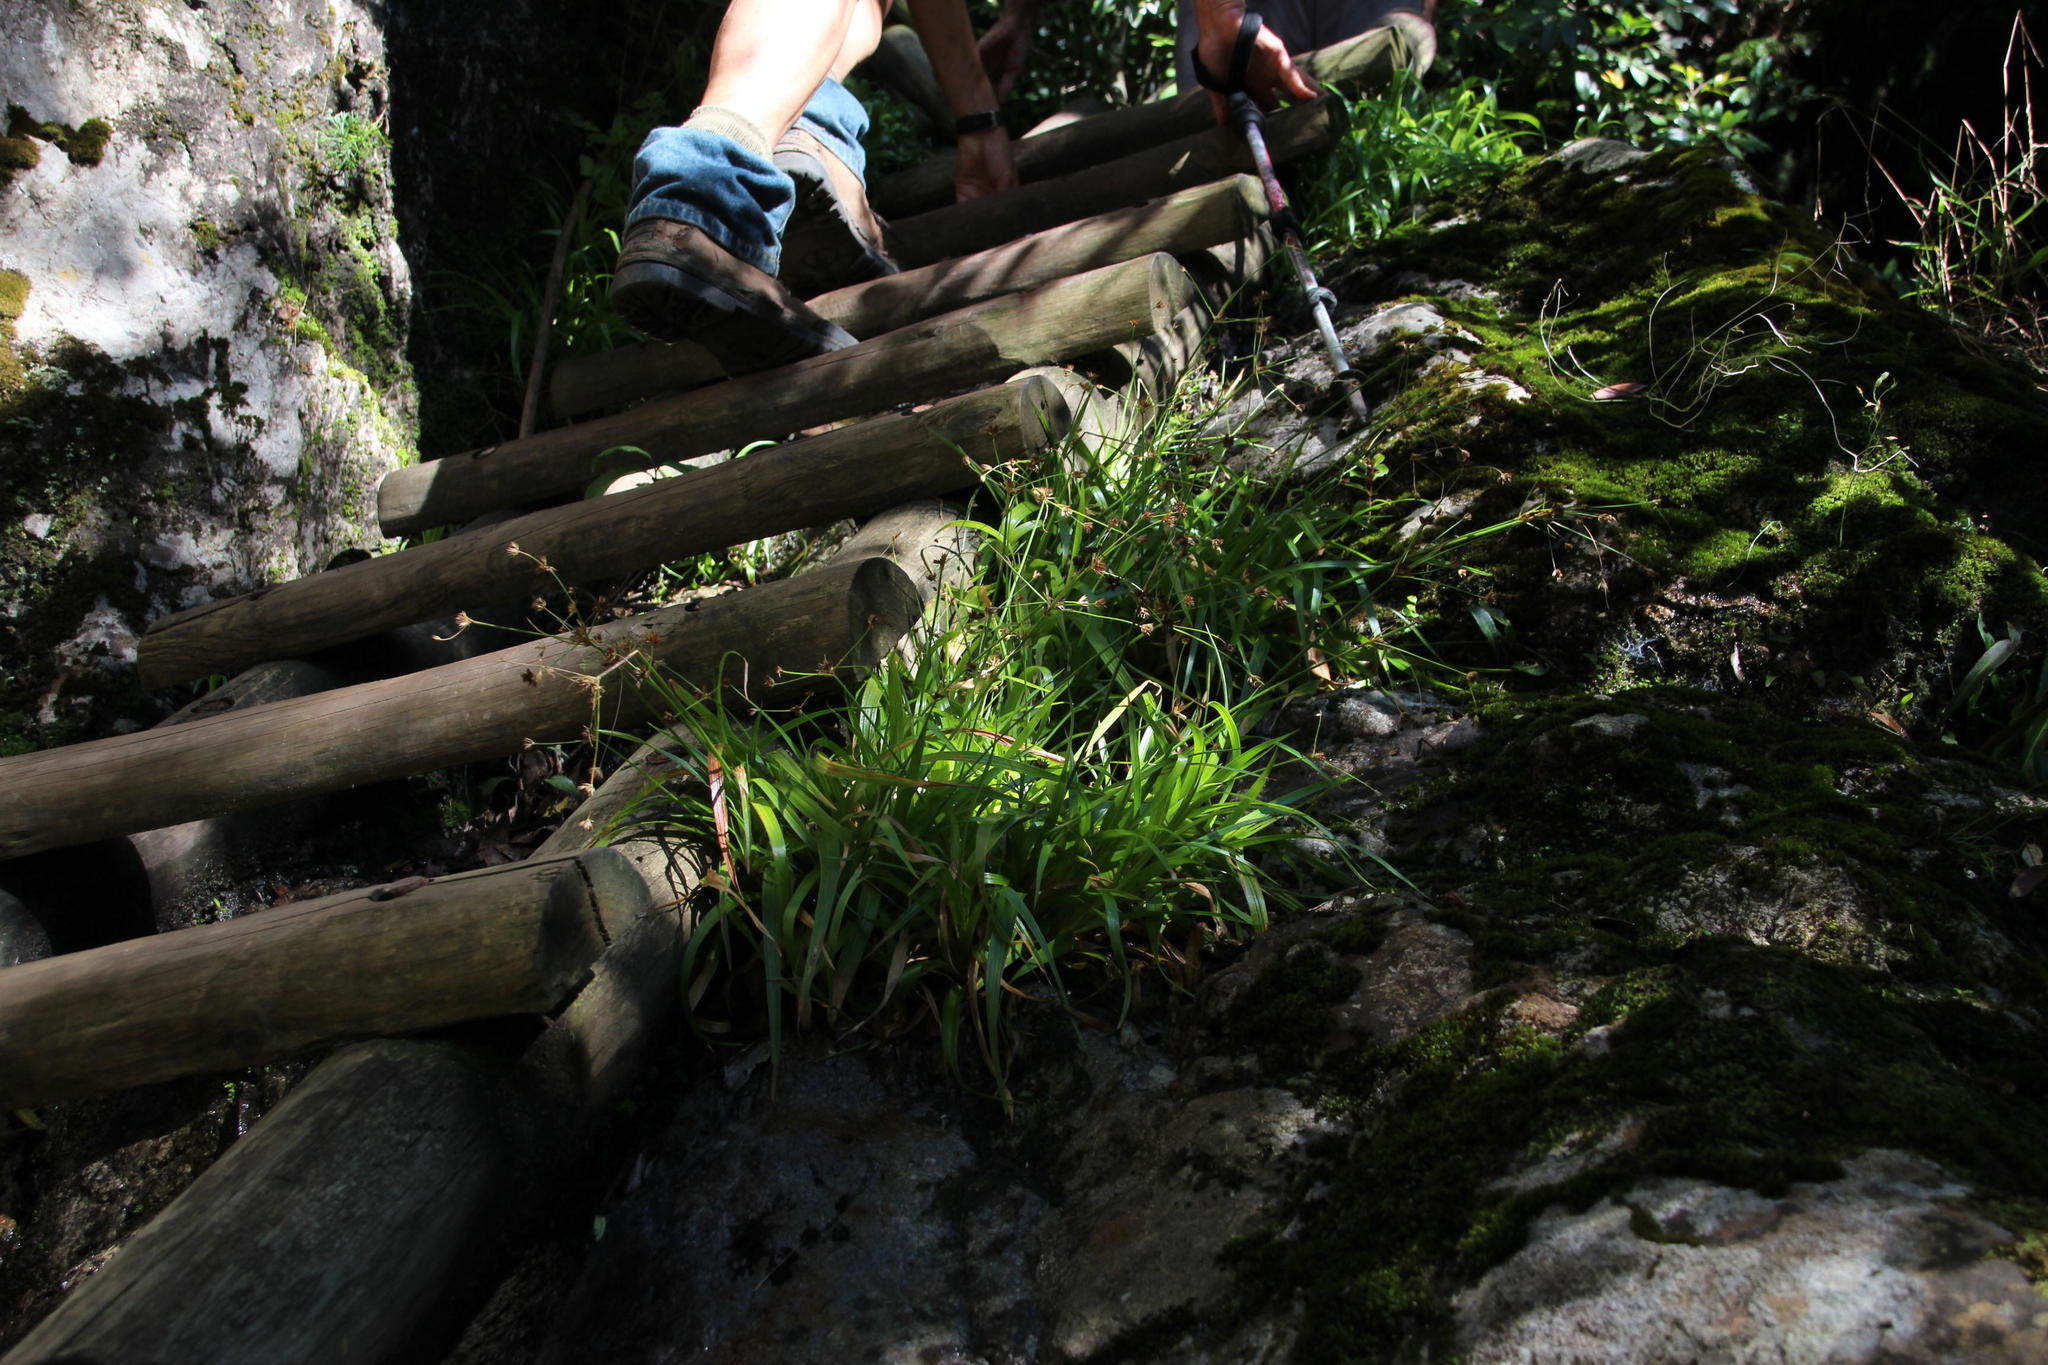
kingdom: Plantae
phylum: Tracheophyta
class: Liliopsida
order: Poales
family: Juncaceae
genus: Juncus
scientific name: Juncus lomatophyllus
